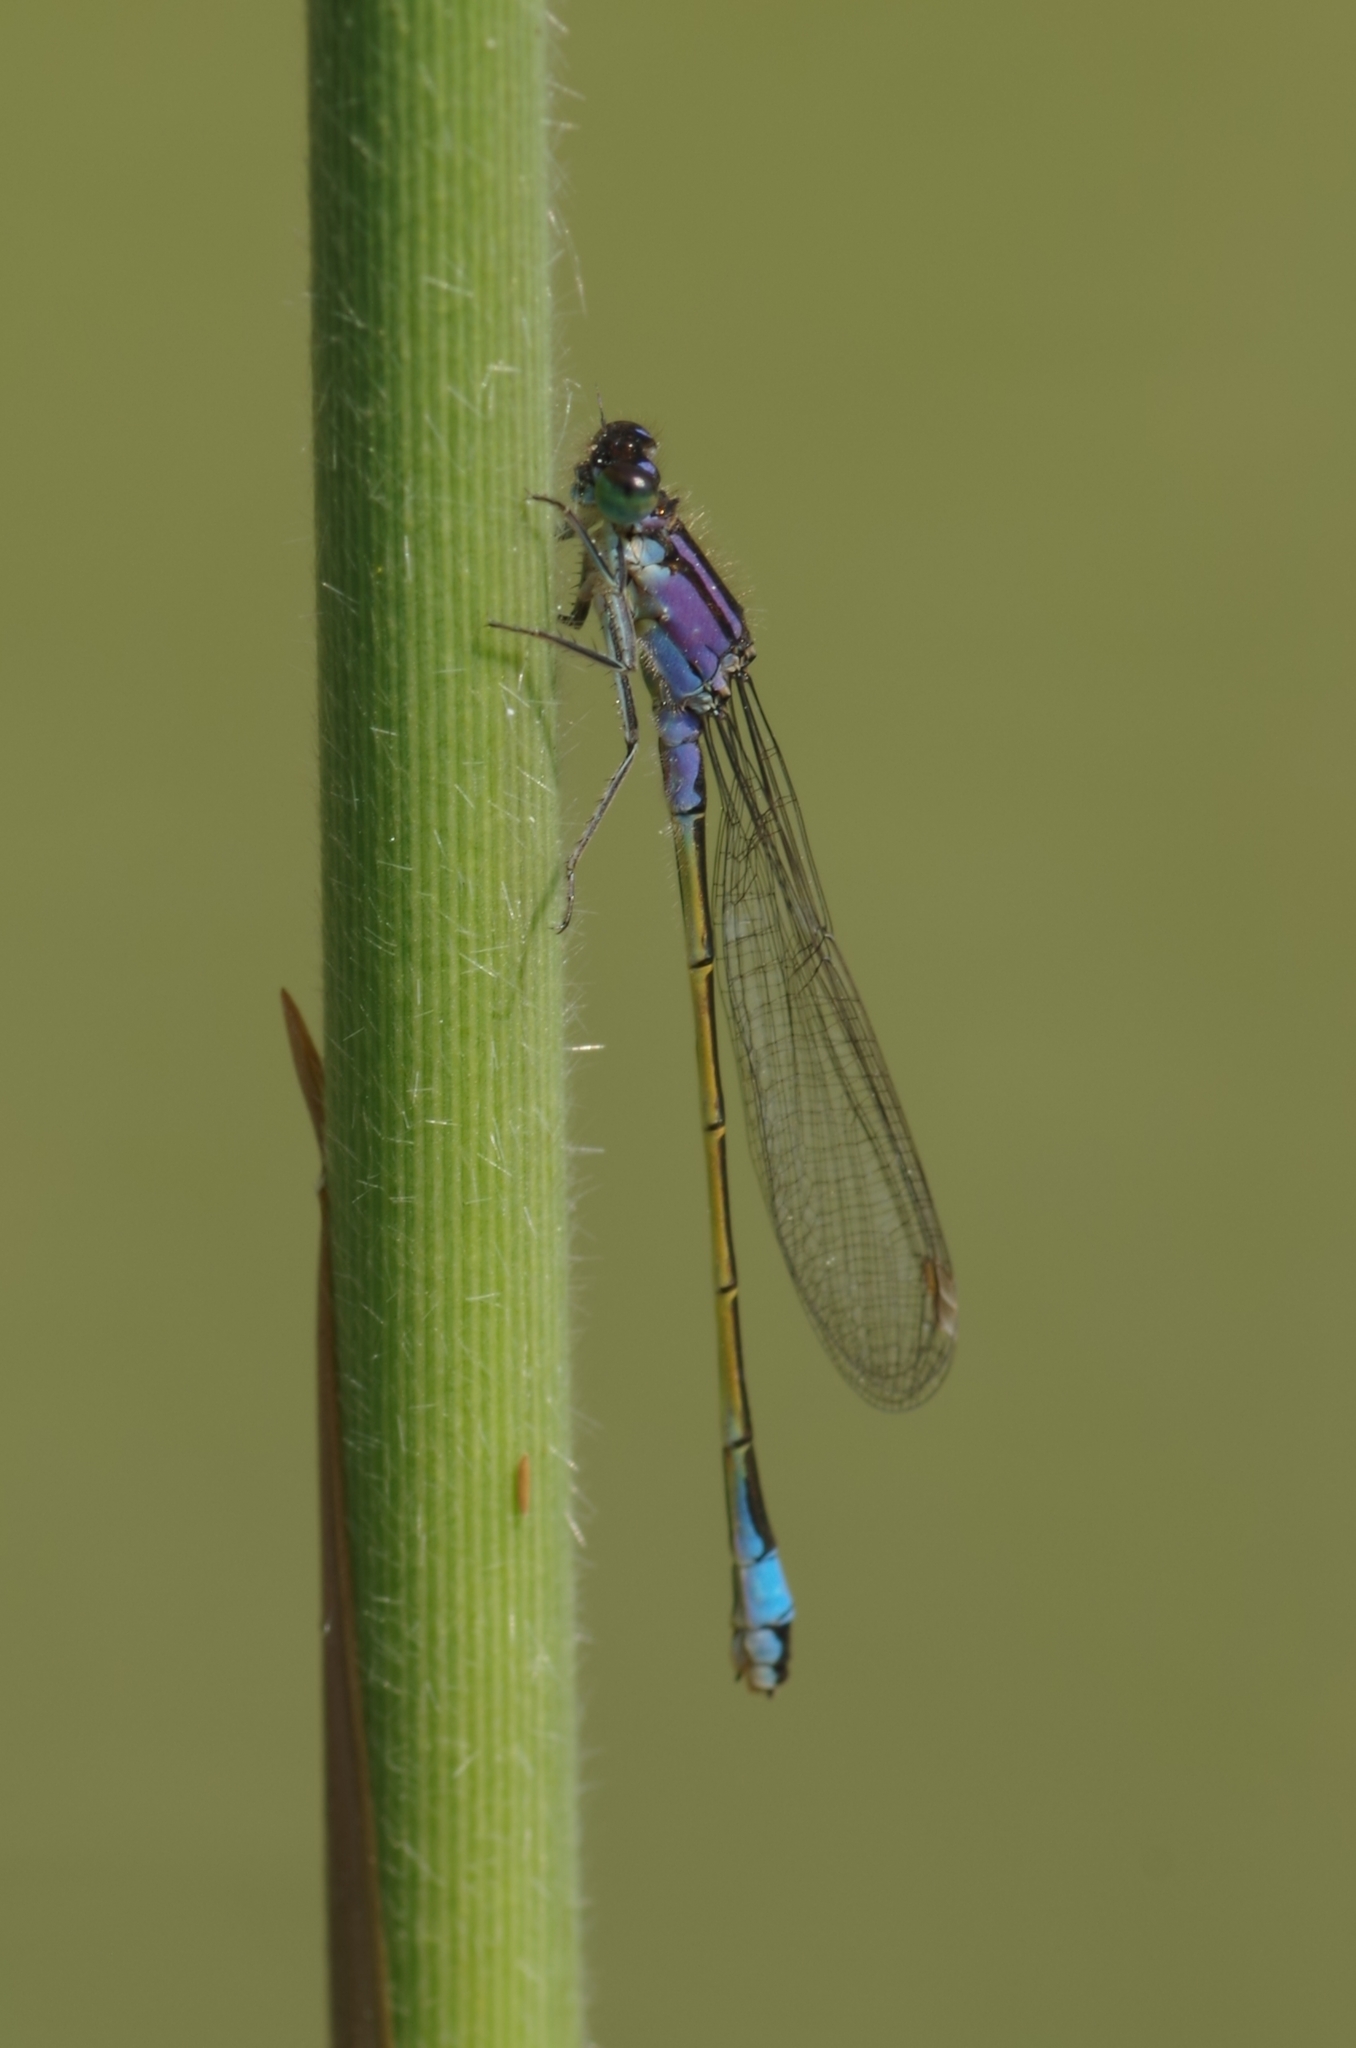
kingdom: Animalia
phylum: Arthropoda
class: Insecta
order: Odonata
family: Coenagrionidae
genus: Ischnura
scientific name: Ischnura elegans
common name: Blue-tailed damselfly
